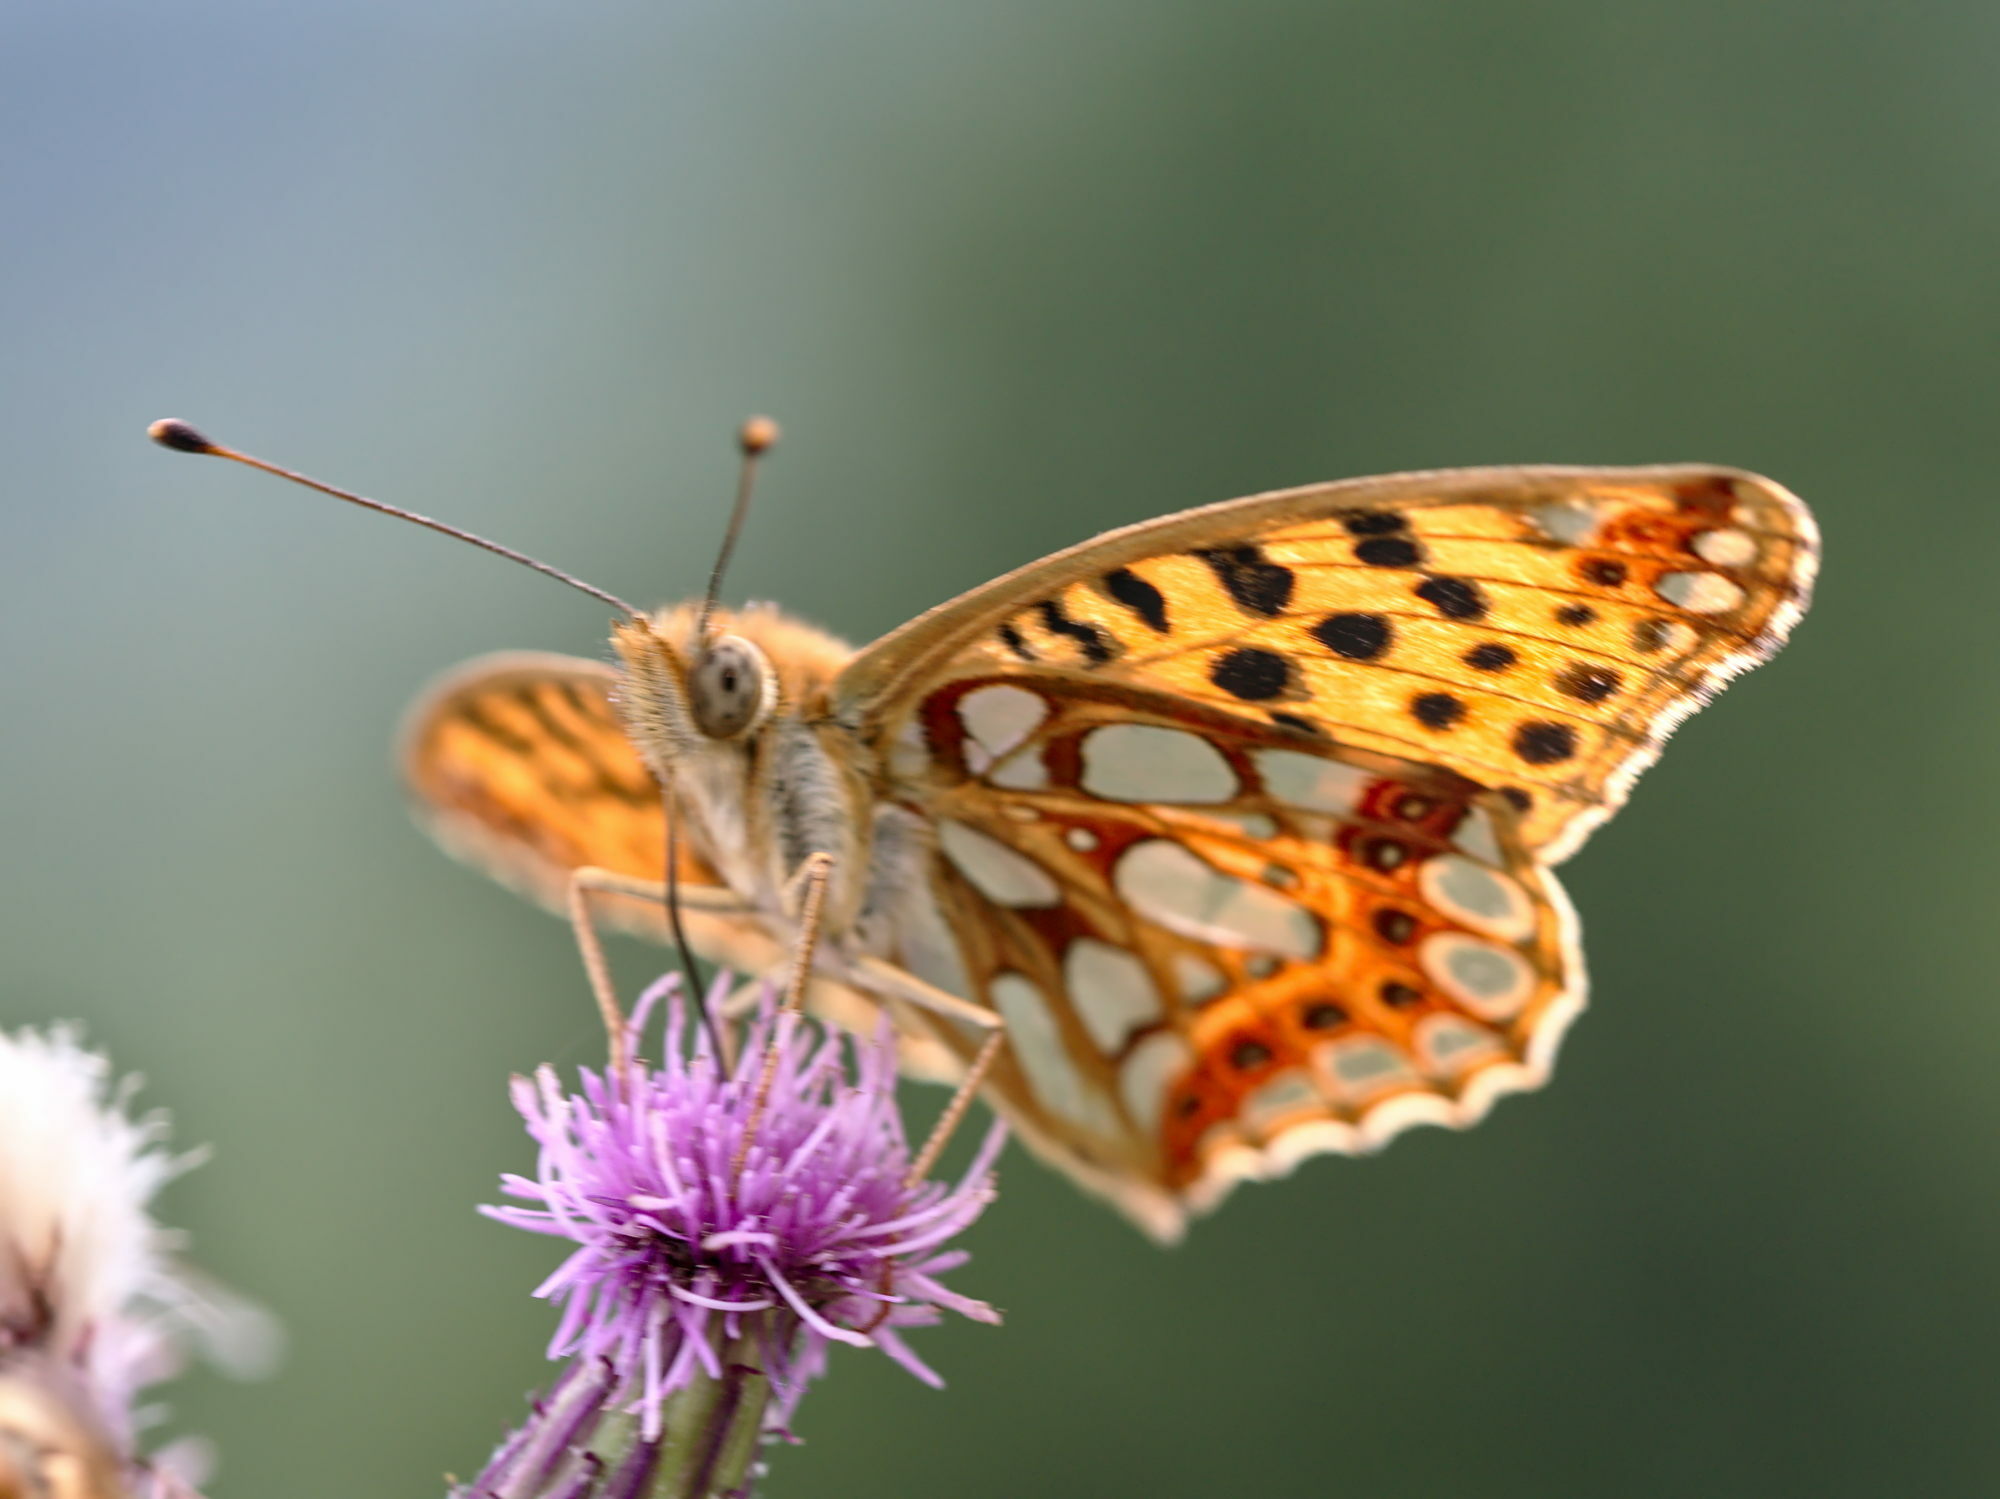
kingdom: Animalia
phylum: Arthropoda
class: Insecta
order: Lepidoptera
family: Nymphalidae
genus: Issoria
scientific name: Issoria lathonia
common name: Queen of spain fritillary
